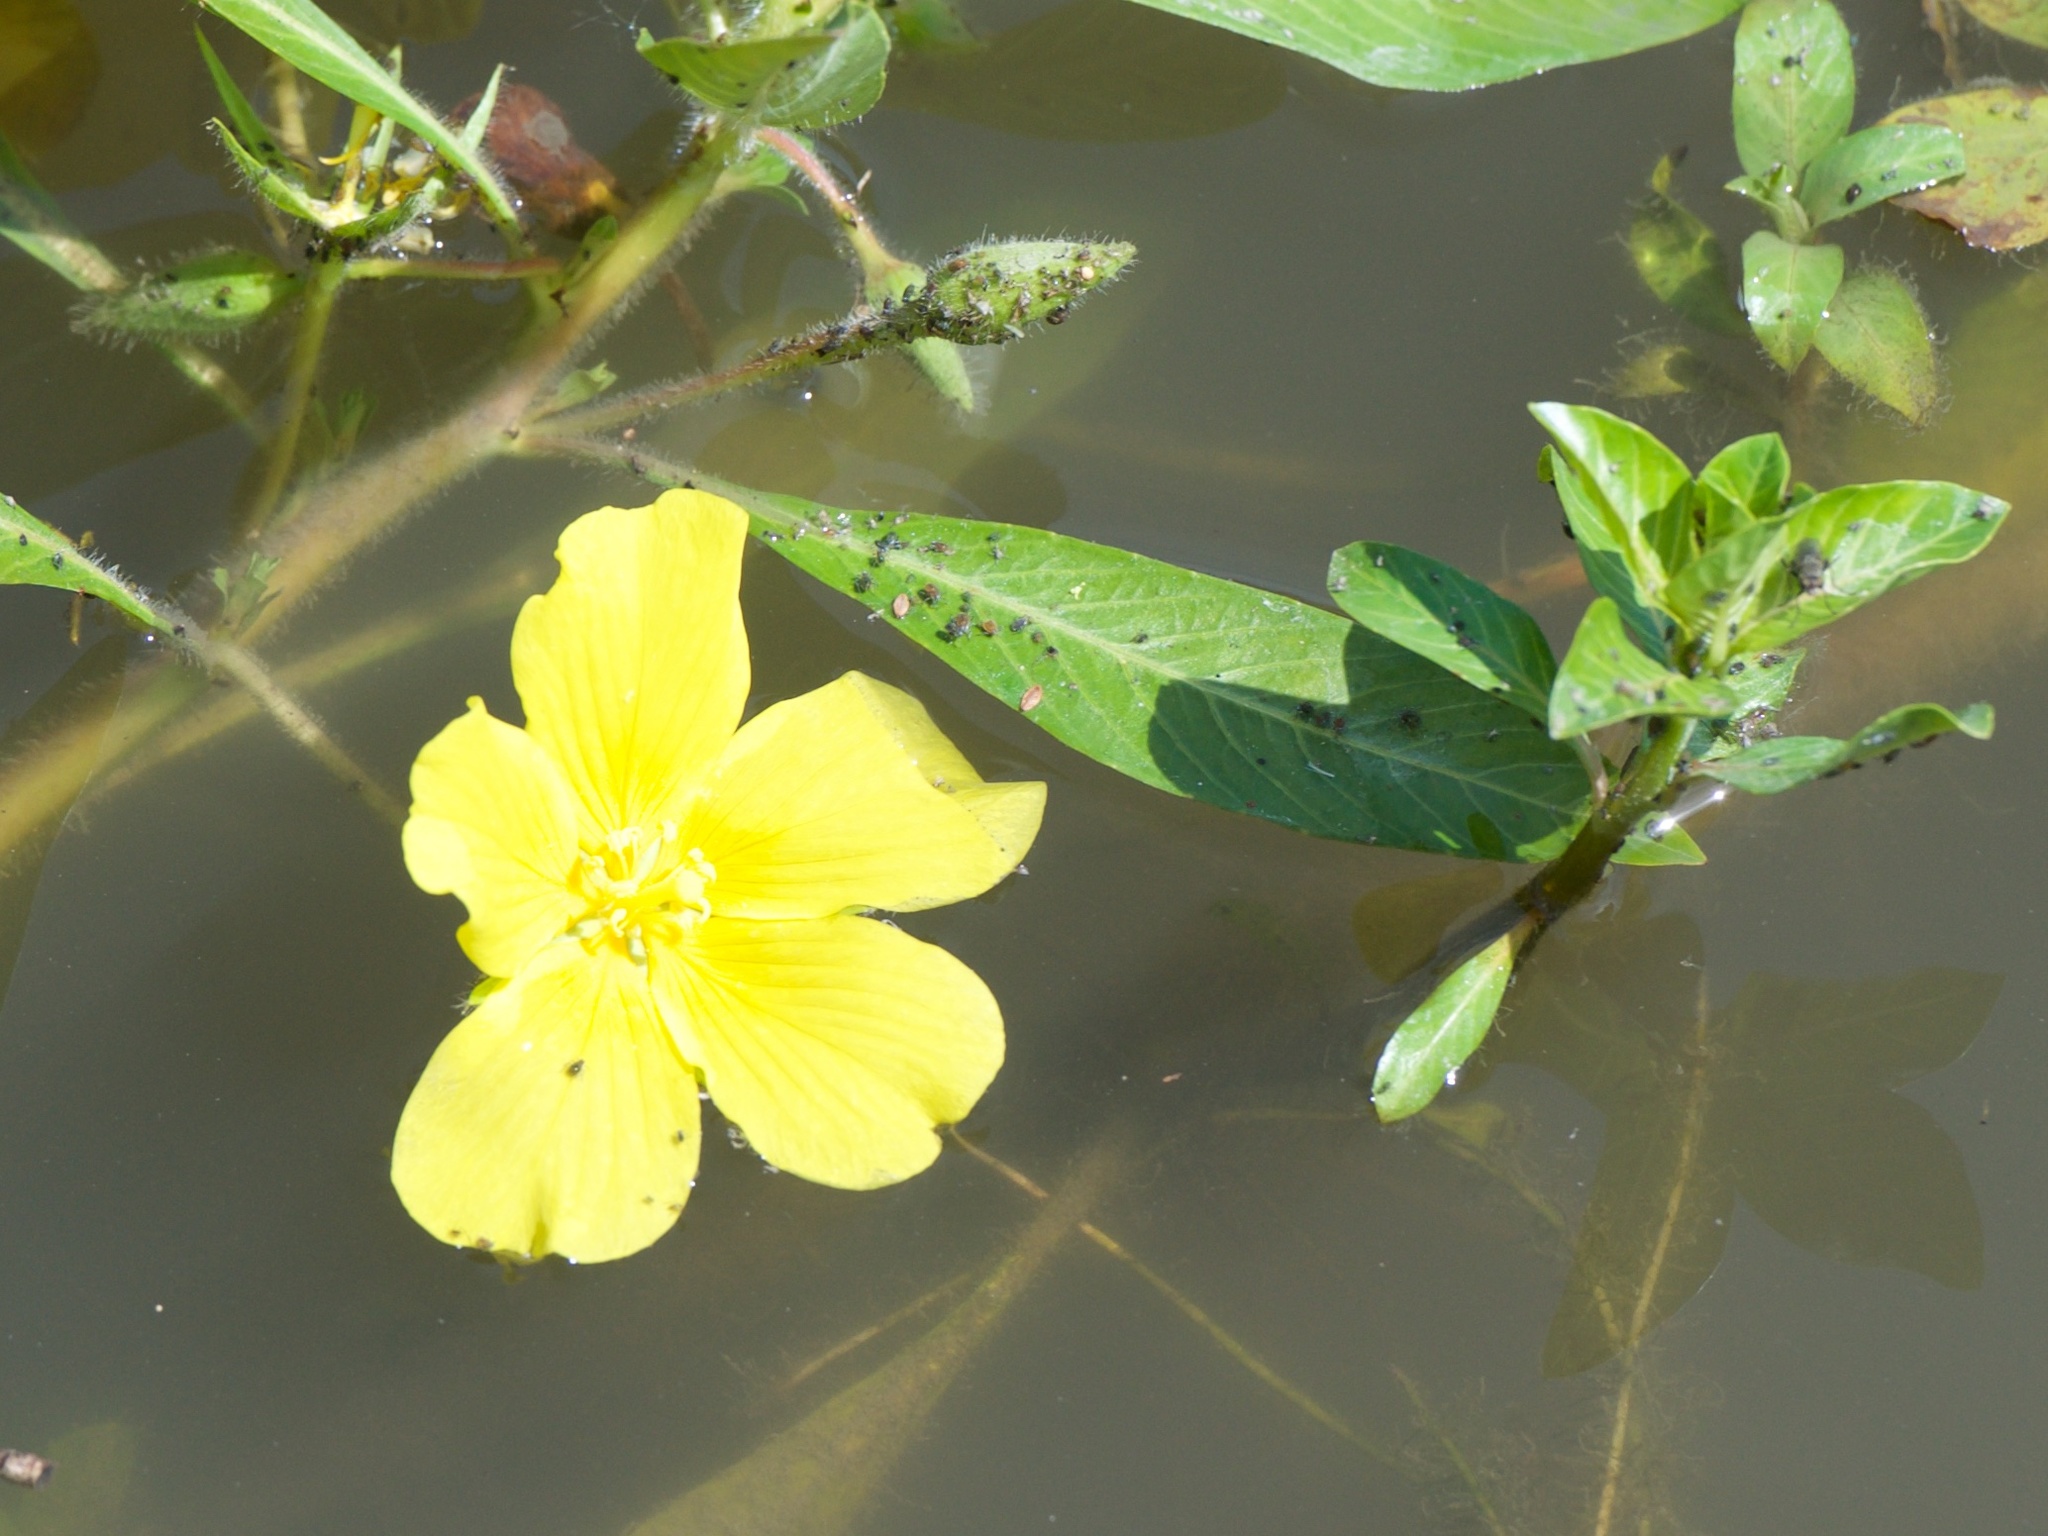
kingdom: Plantae
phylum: Tracheophyta
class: Magnoliopsida
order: Myrtales
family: Onagraceae
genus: Ludwigia
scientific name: Ludwigia peploides
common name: Floating primrose-willow
